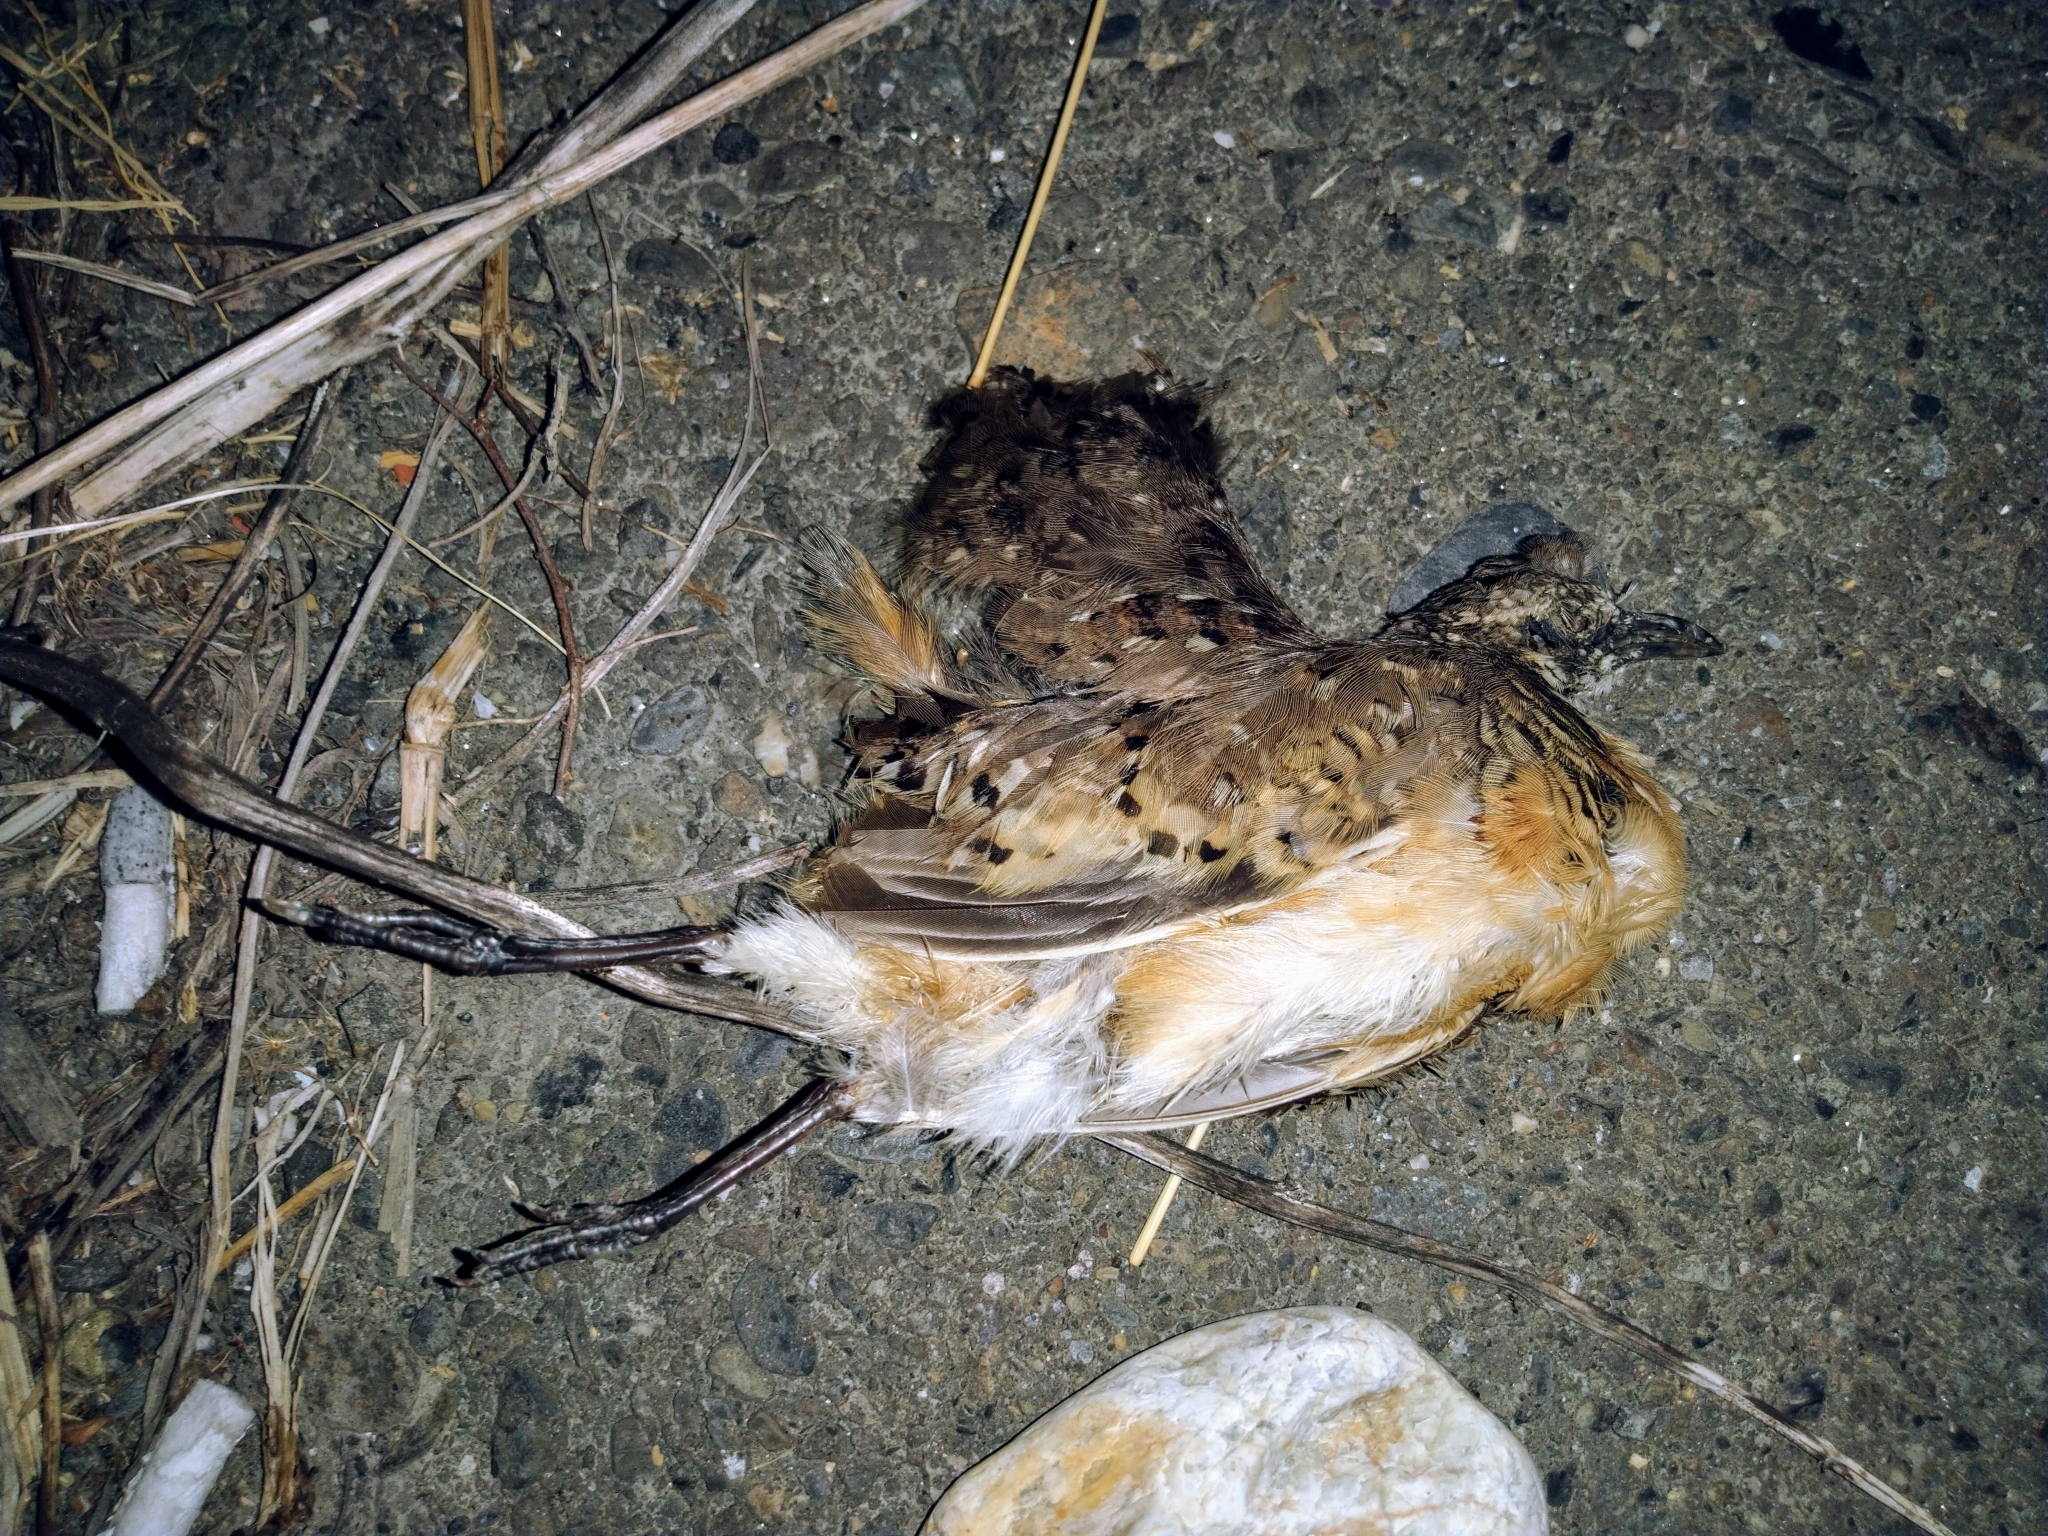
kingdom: Animalia
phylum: Chordata
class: Aves
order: Charadriiformes
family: Turnicidae
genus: Turnix
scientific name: Turnix suscitator
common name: Barred buttonquail
